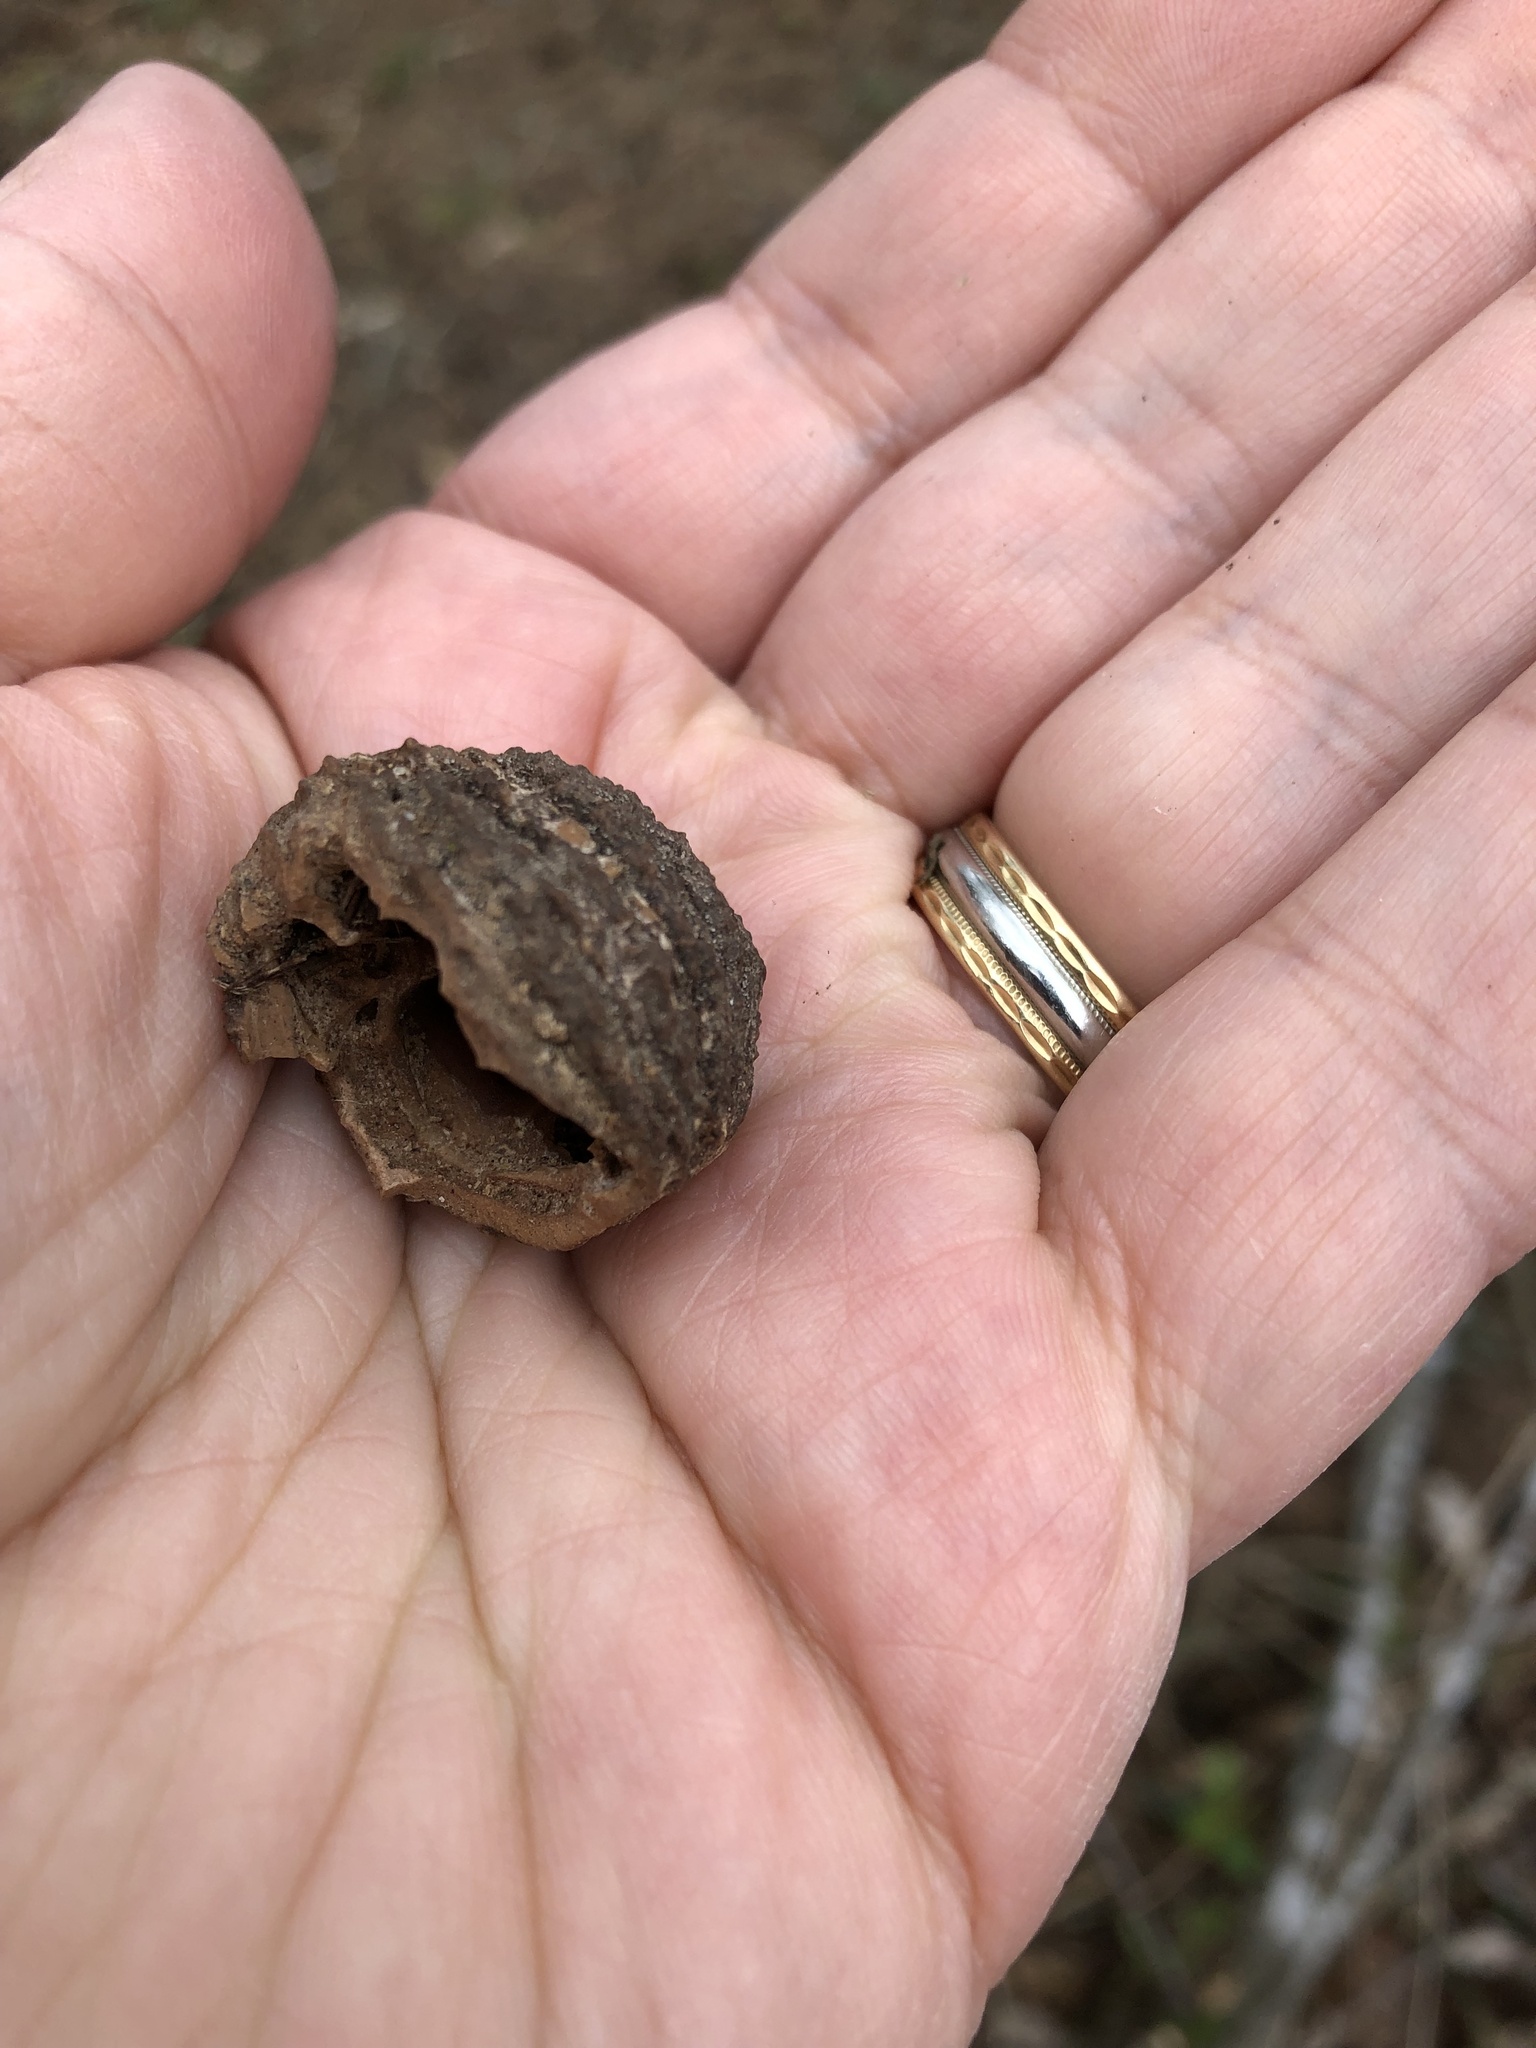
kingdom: Plantae
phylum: Tracheophyta
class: Magnoliopsida
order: Fagales
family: Juglandaceae
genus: Juglans
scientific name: Juglans nigra
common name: Black walnut
